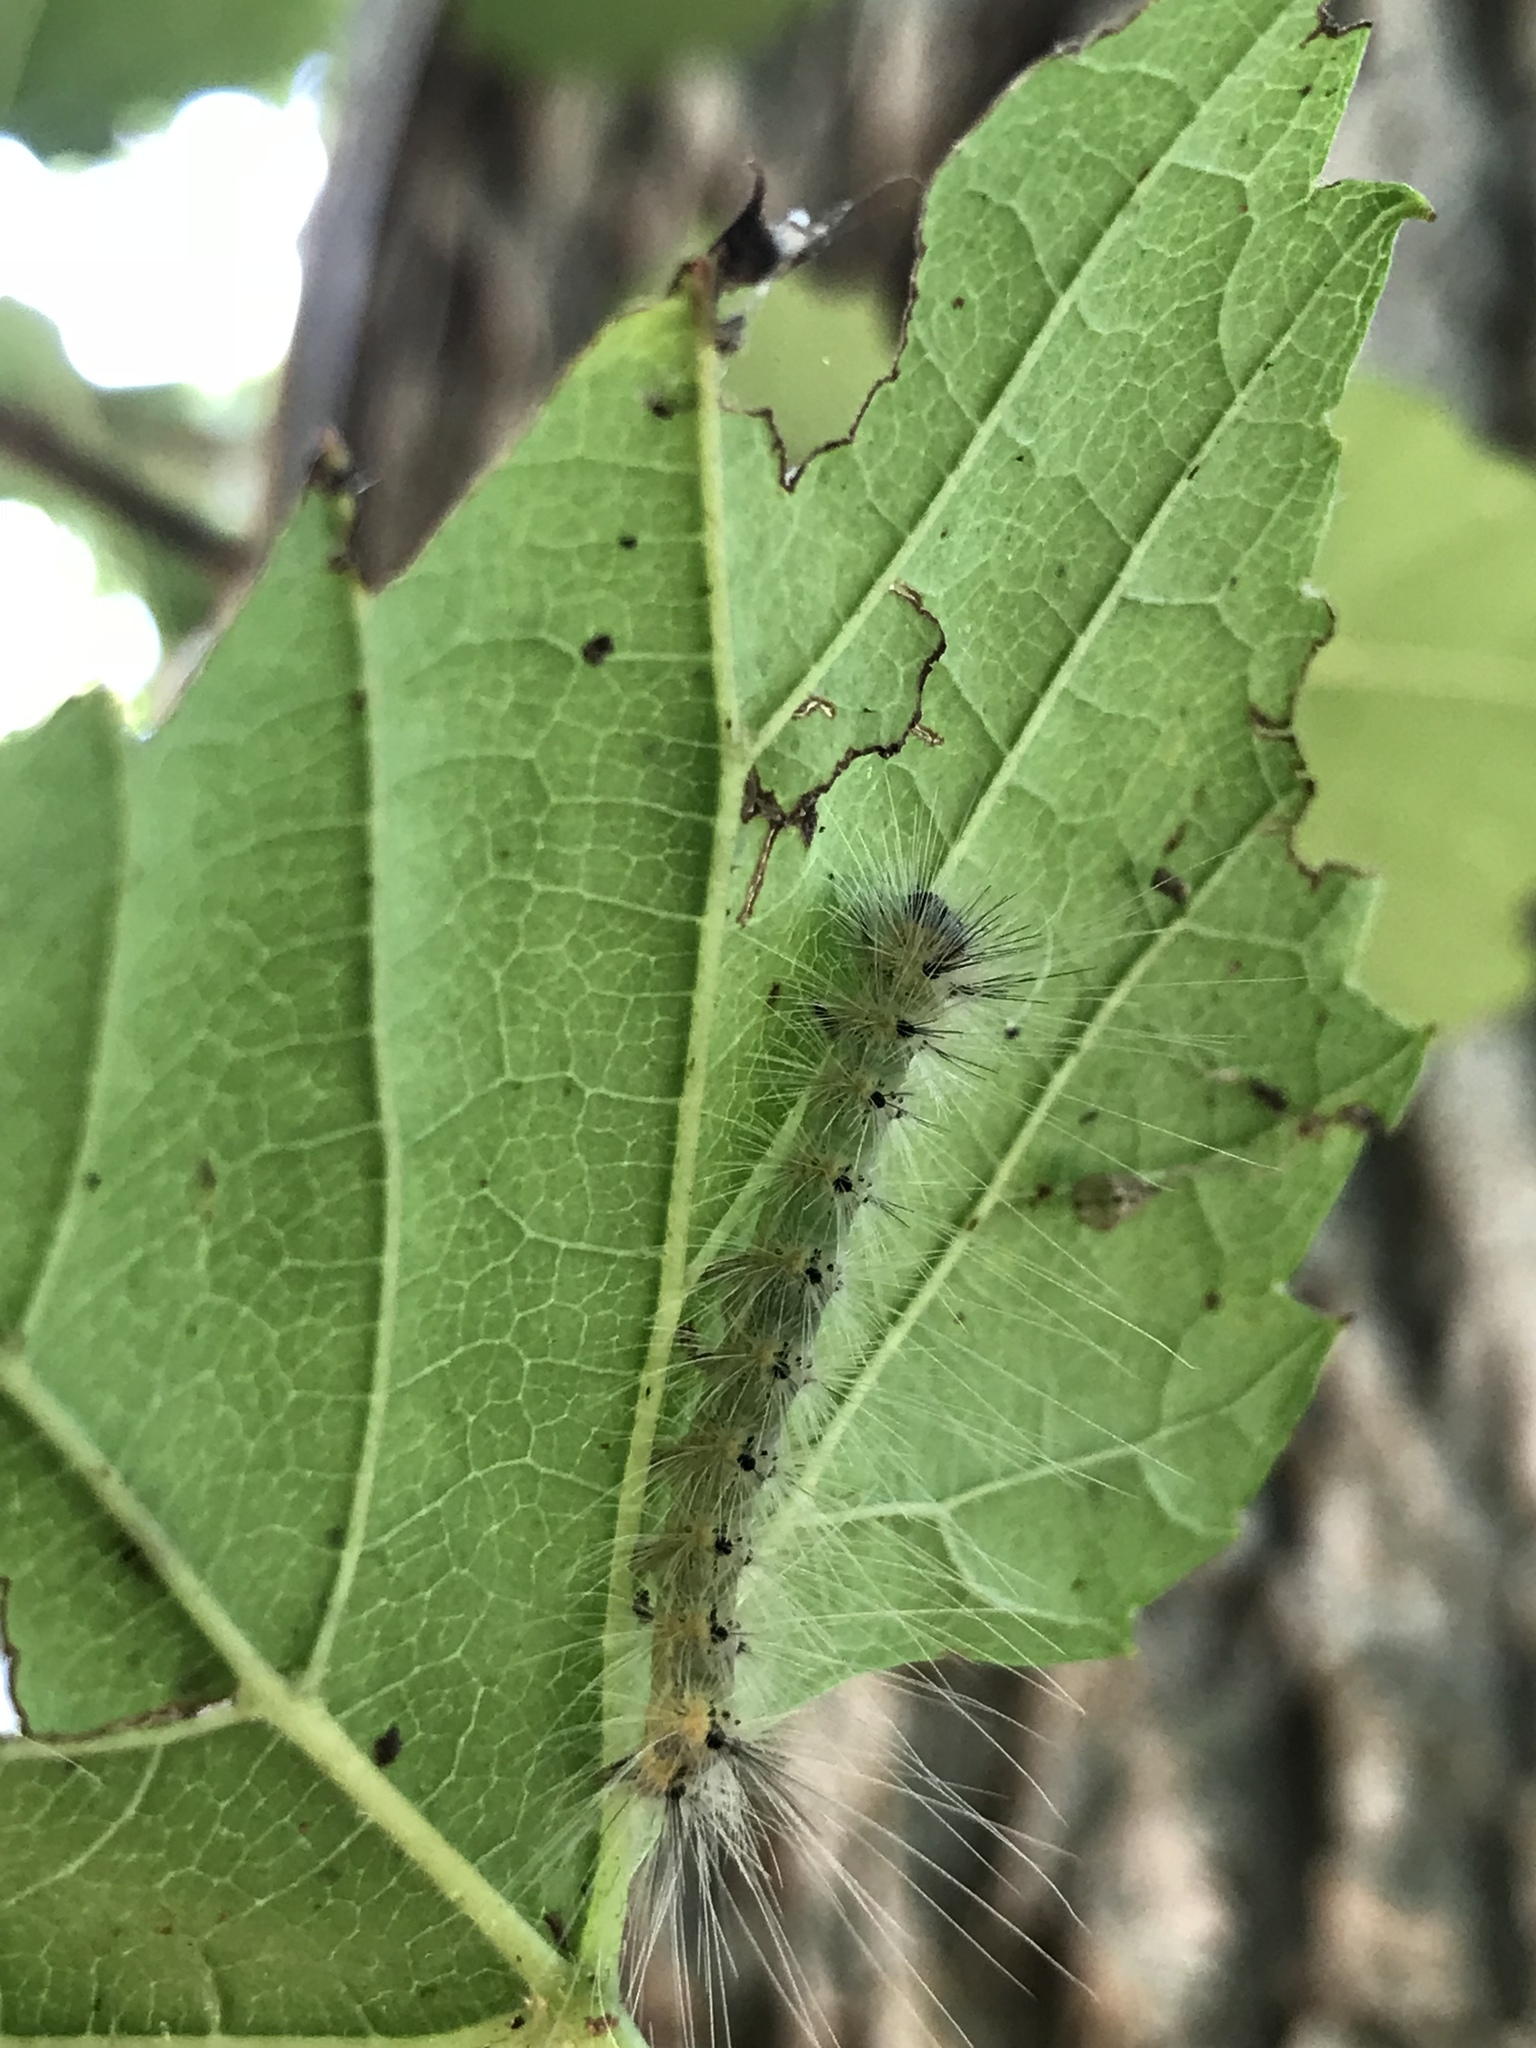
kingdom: Animalia
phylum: Arthropoda
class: Insecta
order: Lepidoptera
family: Erebidae
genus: Hyphantria
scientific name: Hyphantria cunea
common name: American white moth
